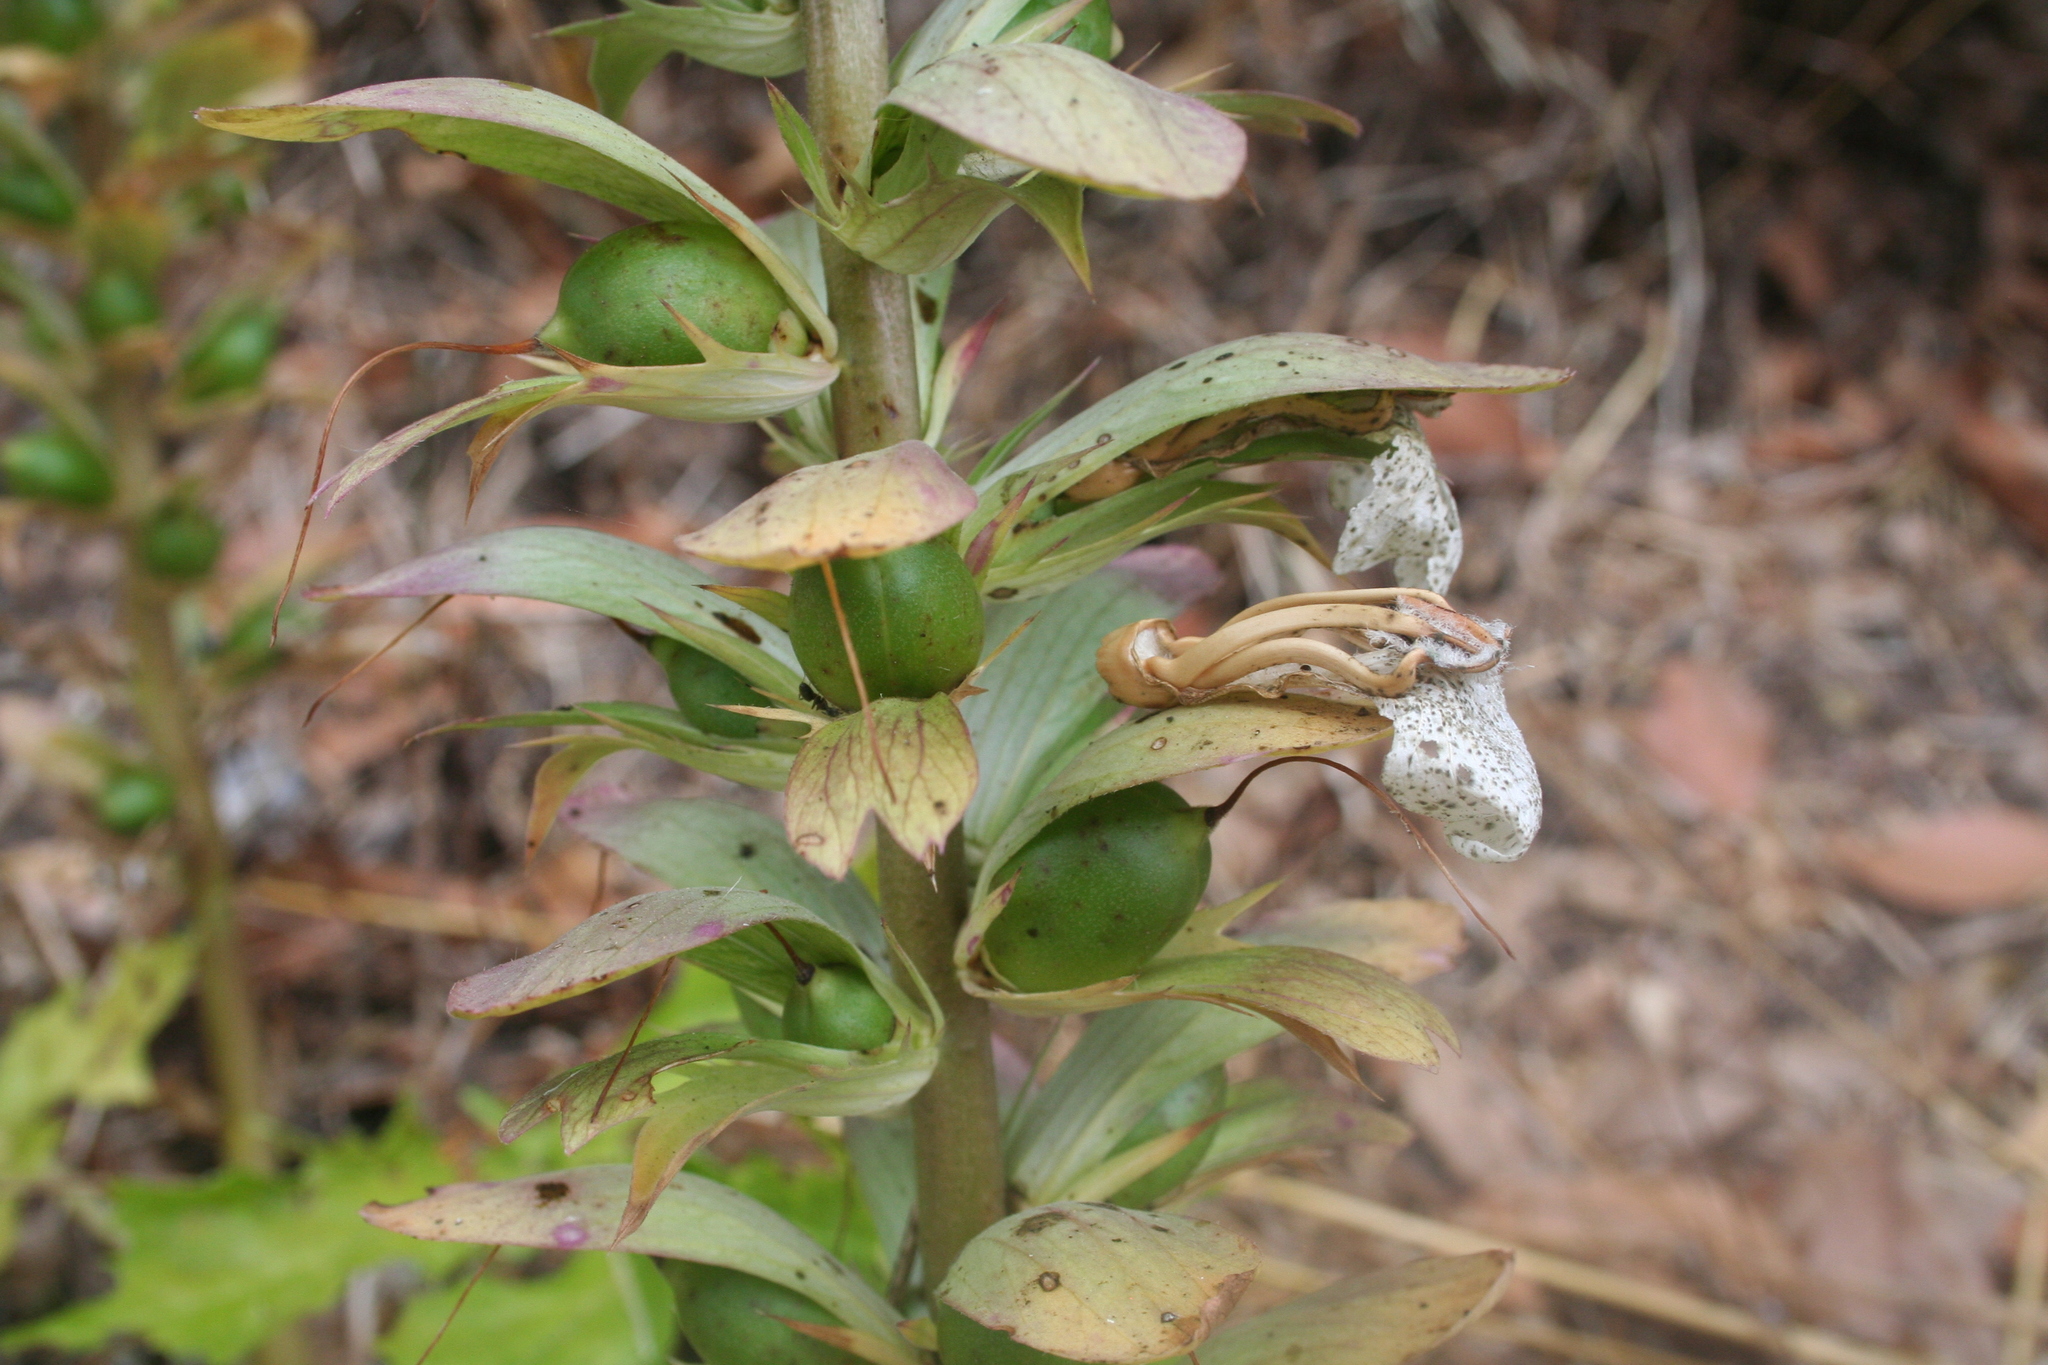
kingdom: Plantae
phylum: Tracheophyta
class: Magnoliopsida
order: Lamiales
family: Acanthaceae
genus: Acanthus
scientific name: Acanthus mollis
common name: Bear's-breech
